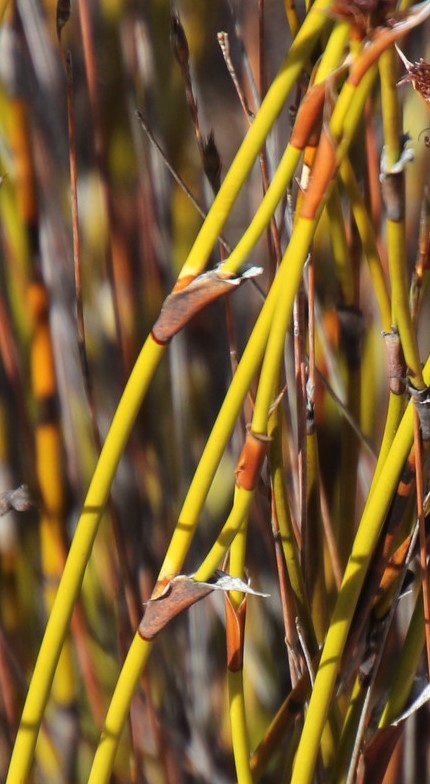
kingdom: Plantae
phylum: Tracheophyta
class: Liliopsida
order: Poales
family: Restionaceae
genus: Restio
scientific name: Restio ocreatus
